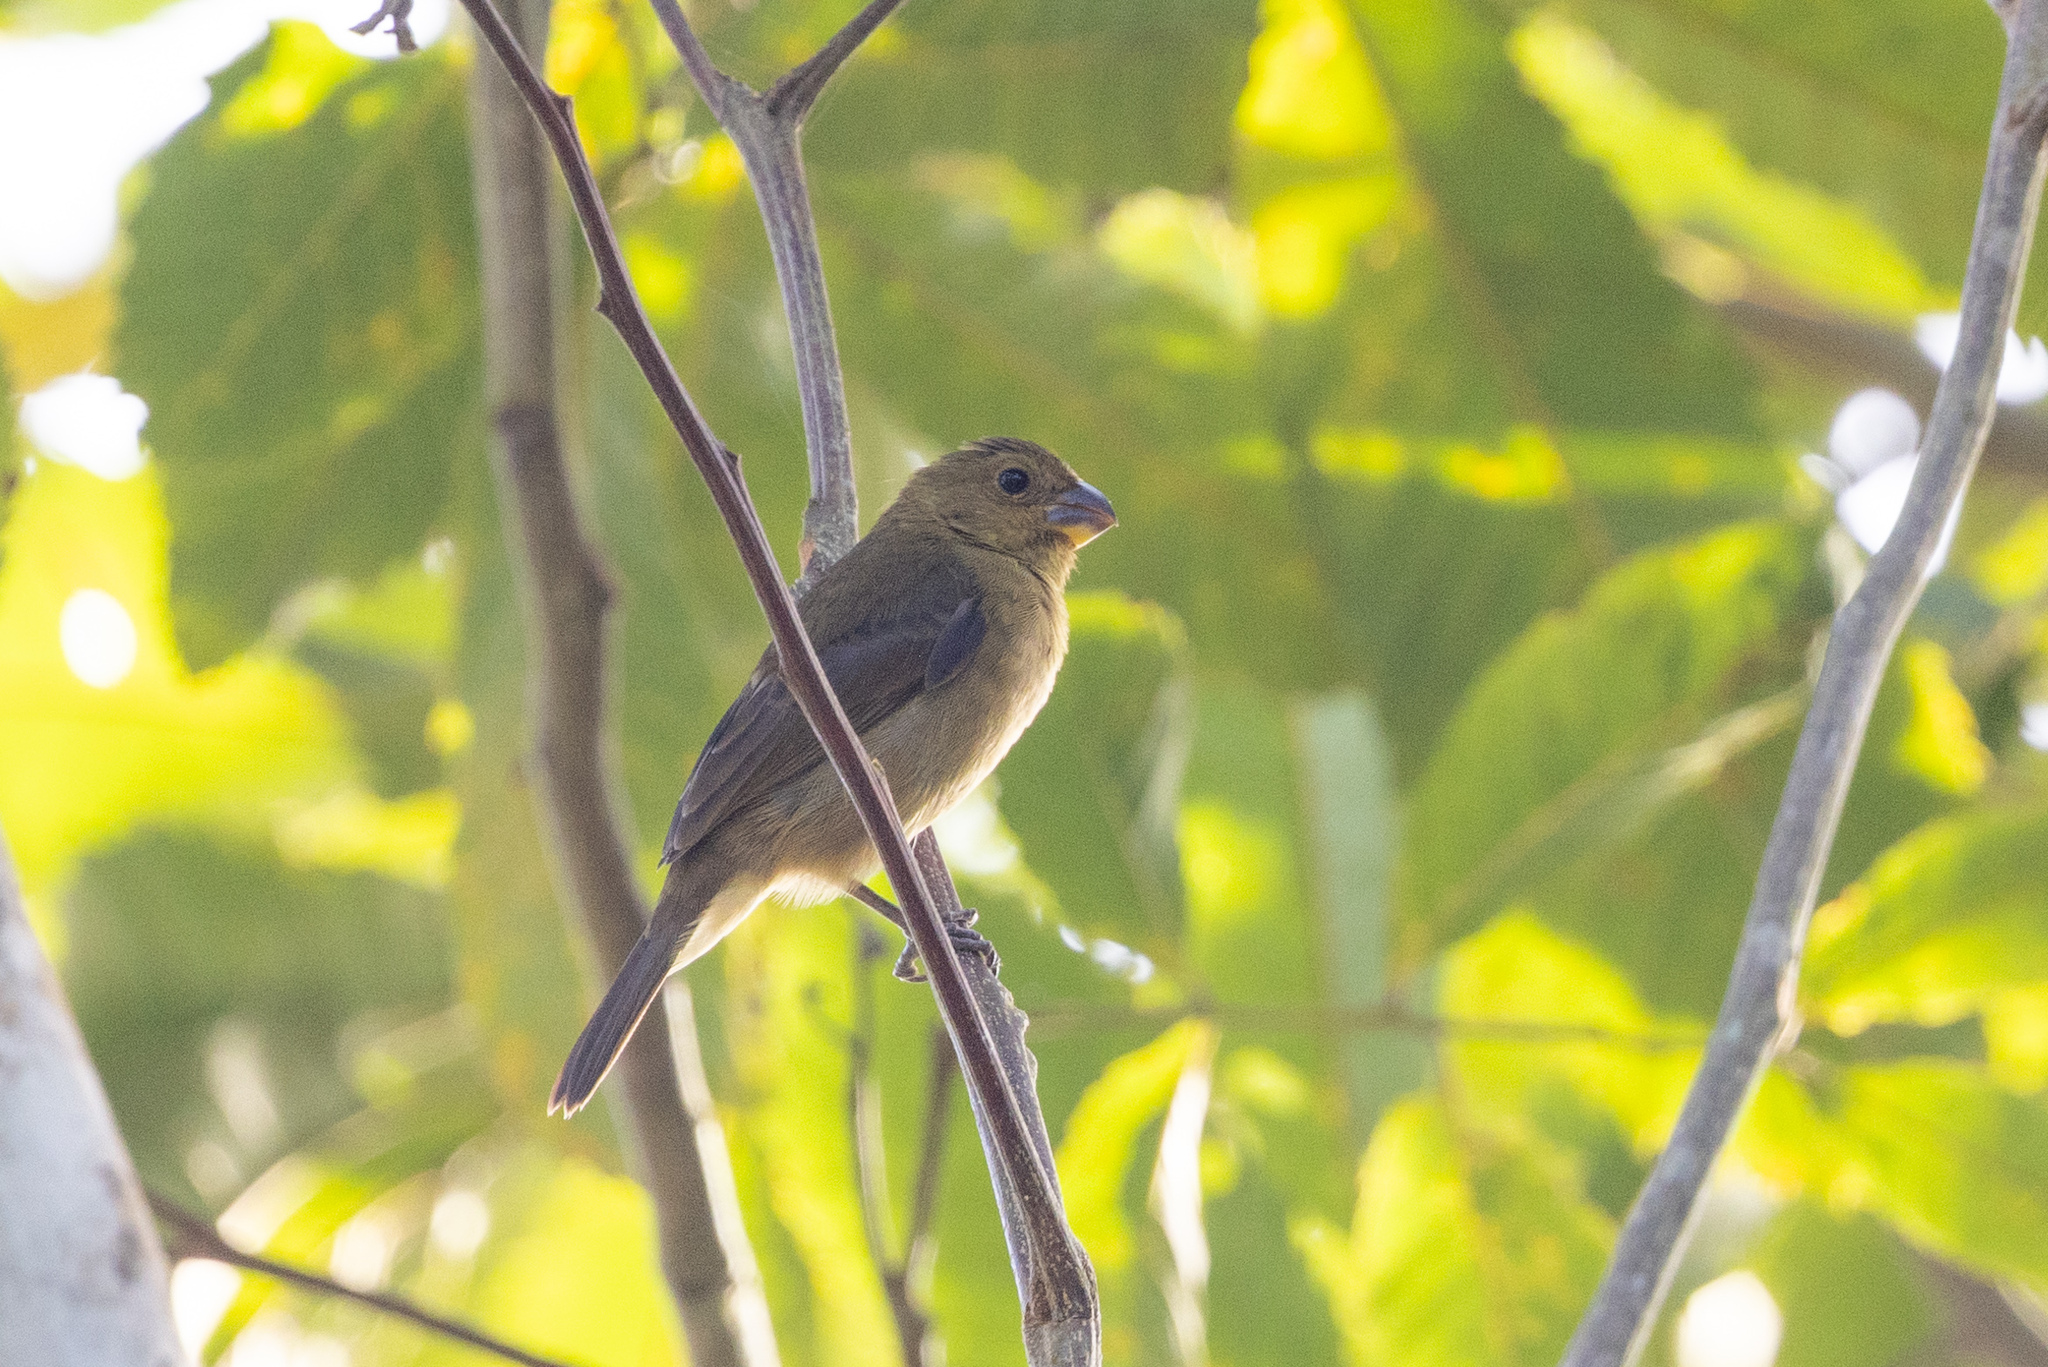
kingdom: Animalia
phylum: Chordata
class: Aves
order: Passeriformes
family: Thraupidae
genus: Sporophila
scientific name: Sporophila corvina
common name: Variable seedeater
